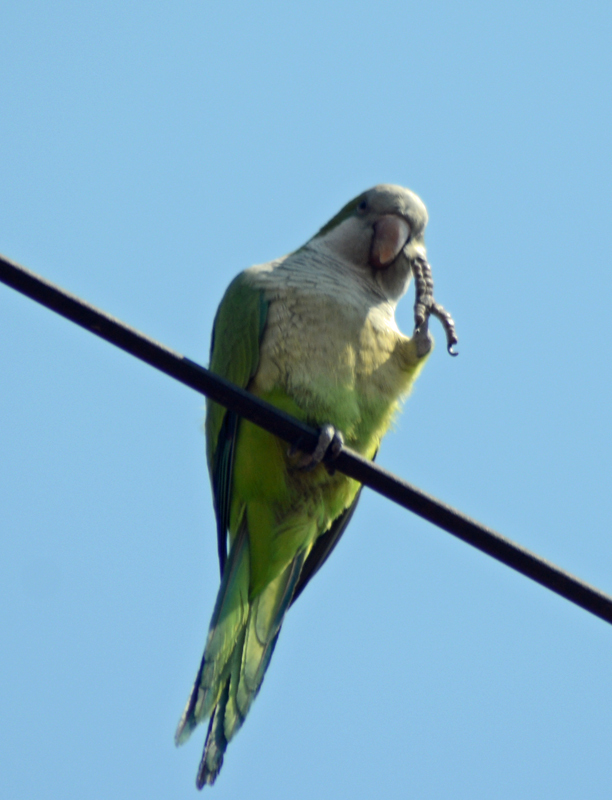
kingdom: Animalia
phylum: Chordata
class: Aves
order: Psittaciformes
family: Psittacidae
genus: Myiopsitta
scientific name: Myiopsitta monachus
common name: Monk parakeet
